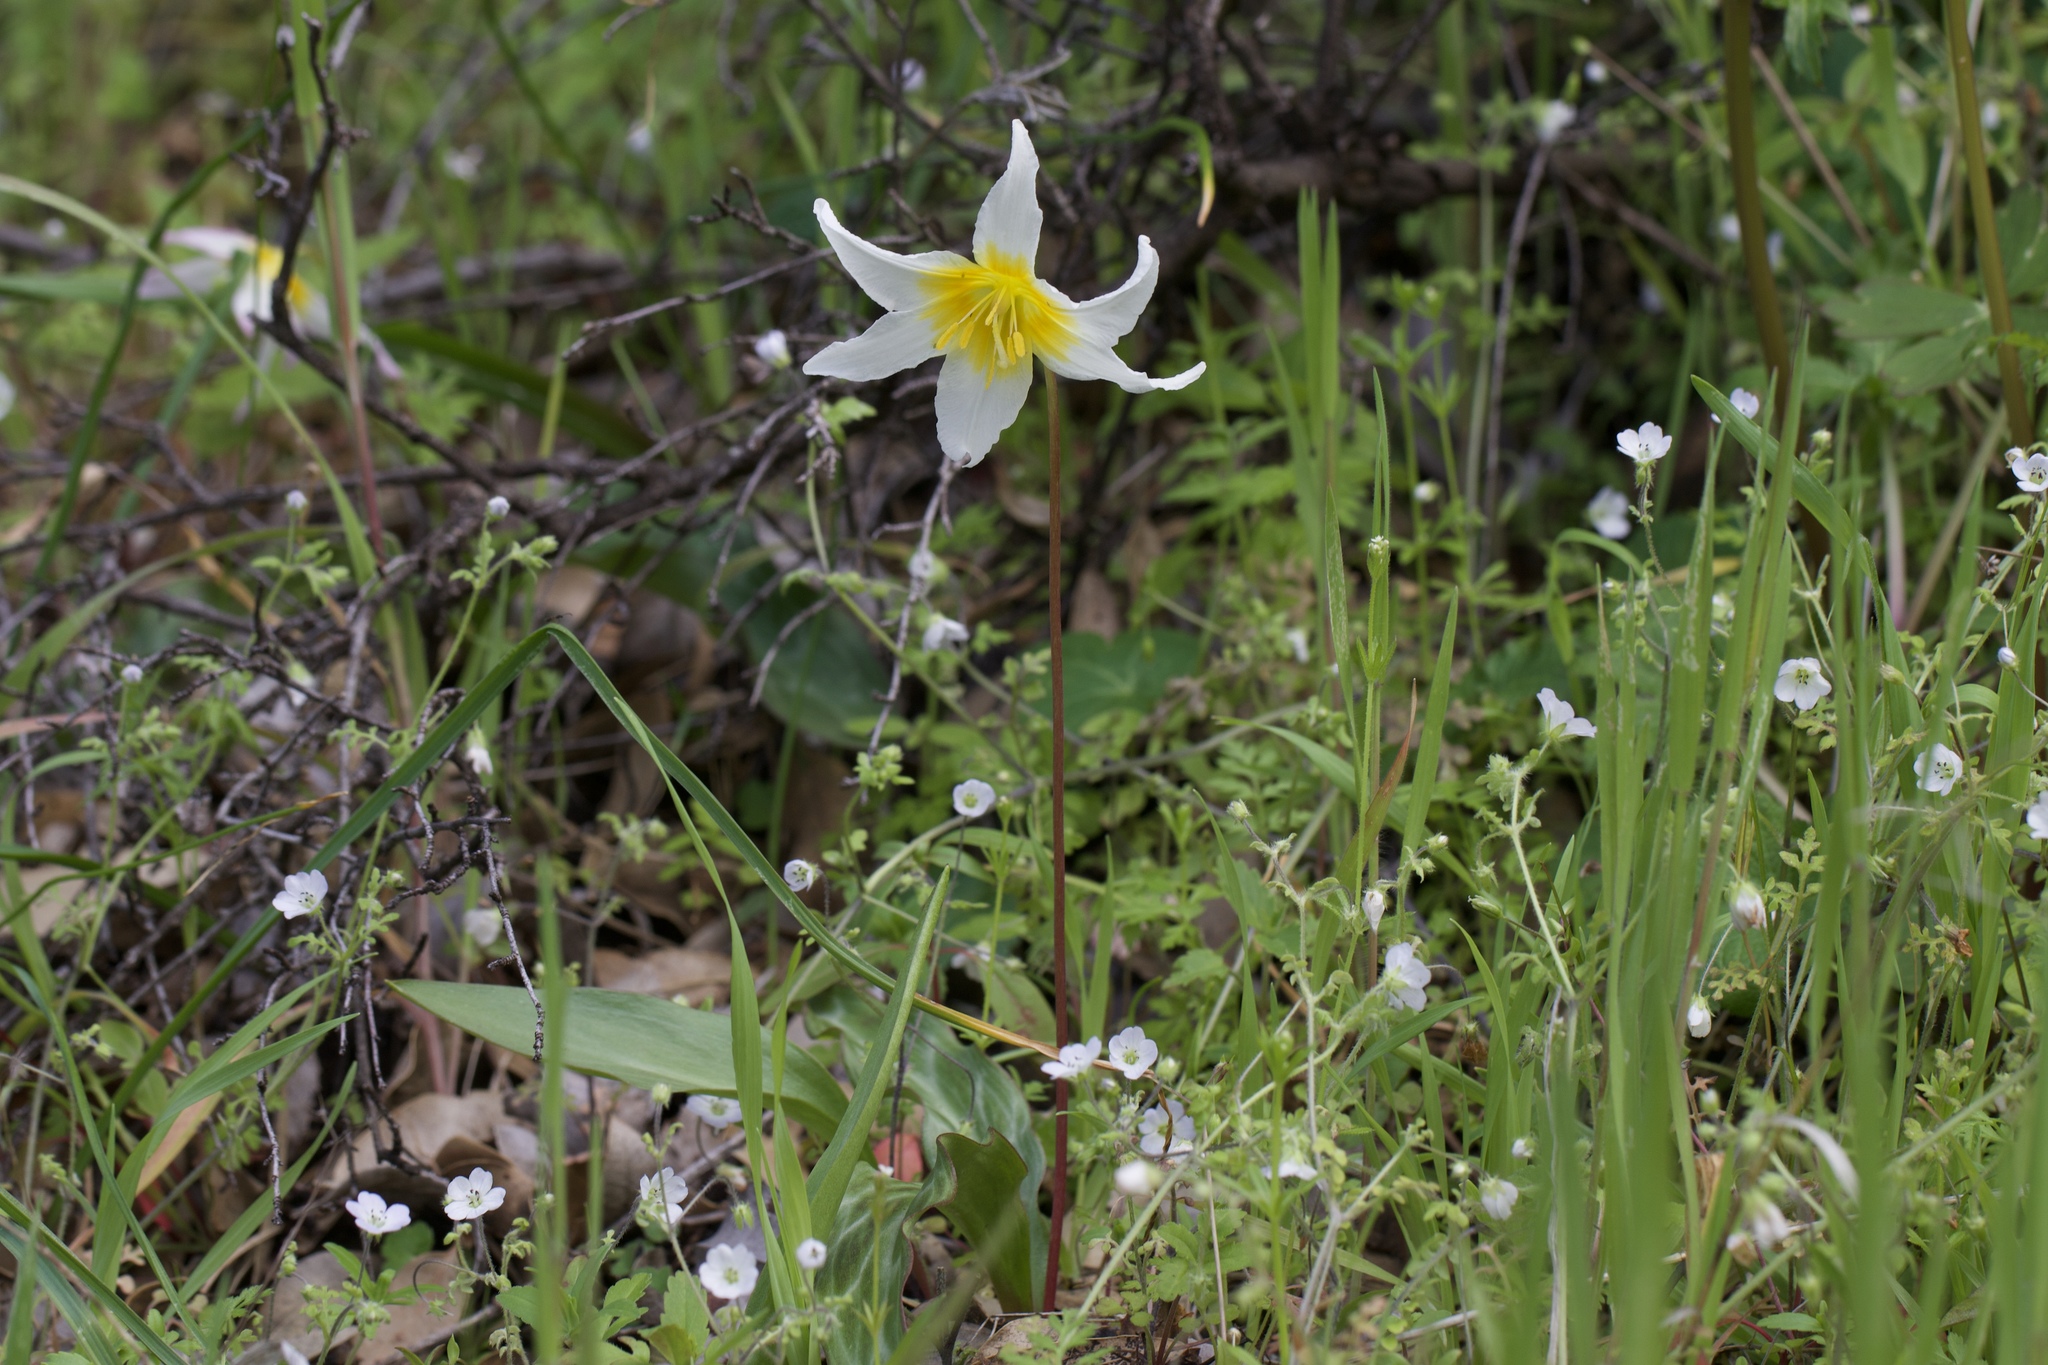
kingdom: Plantae
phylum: Tracheophyta
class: Liliopsida
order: Liliales
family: Liliaceae
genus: Erythronium
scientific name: Erythronium helenae
